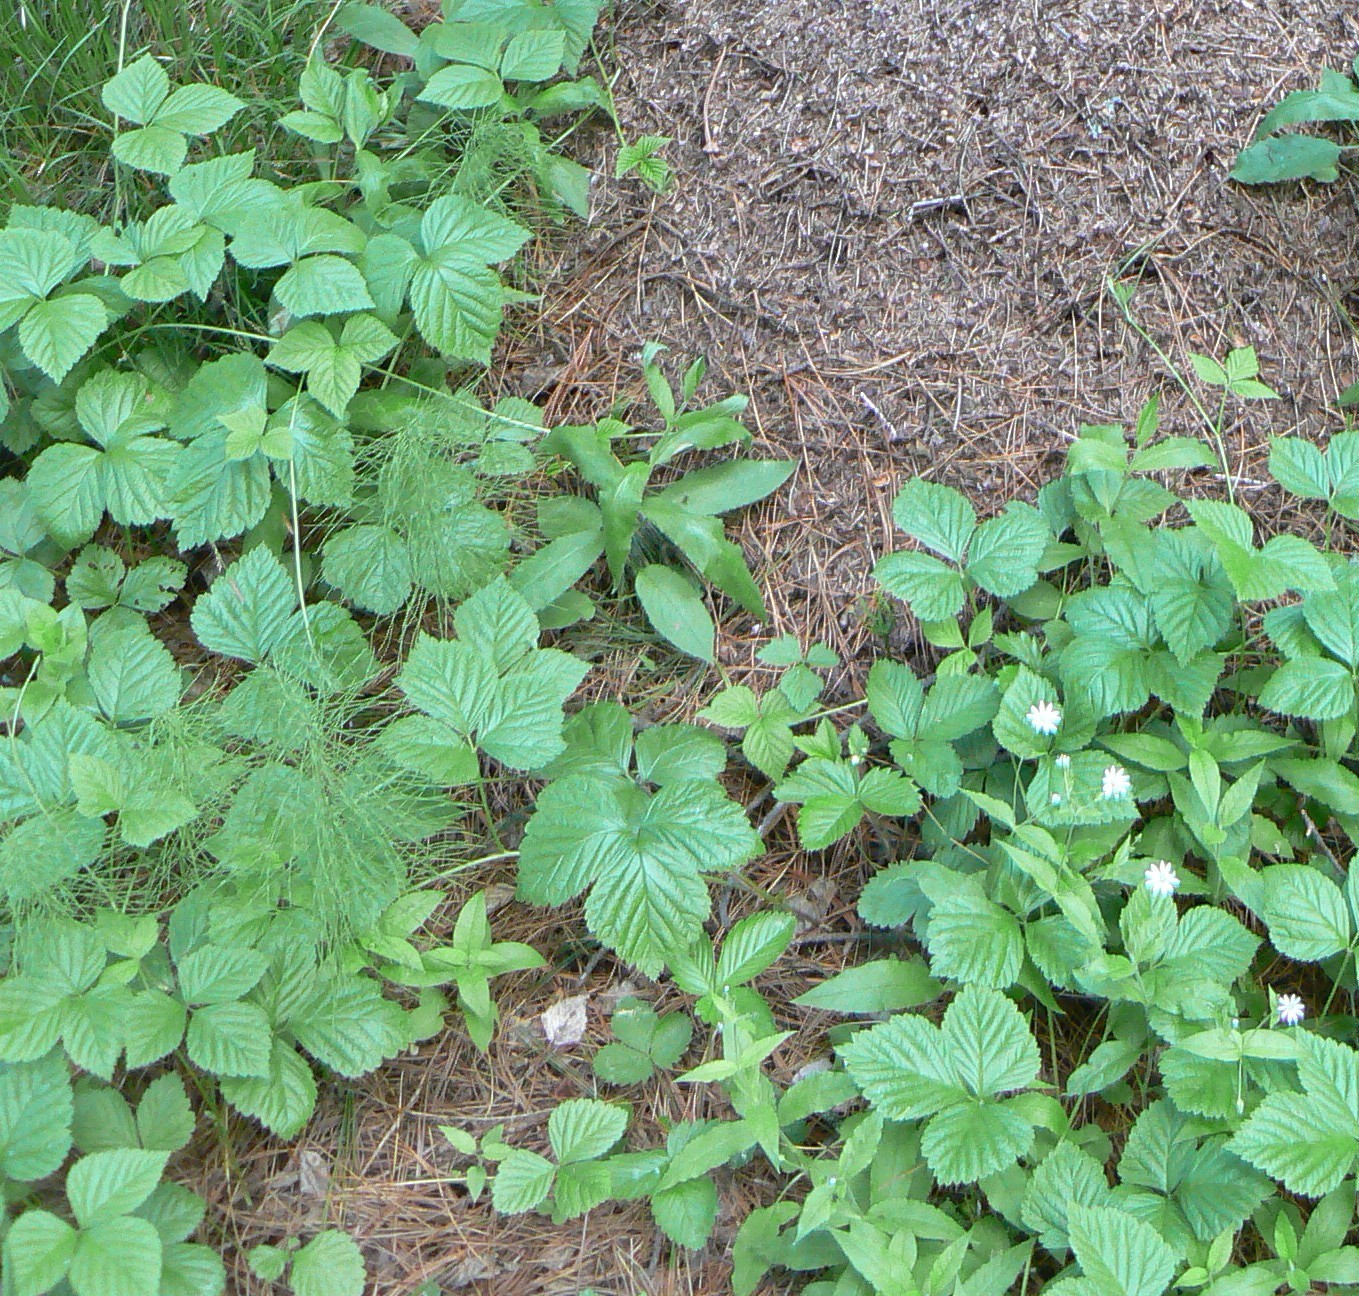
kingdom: Plantae
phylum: Tracheophyta
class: Magnoliopsida
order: Rosales
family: Rosaceae
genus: Rubus
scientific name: Rubus saxatilis
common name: Stone bramble
